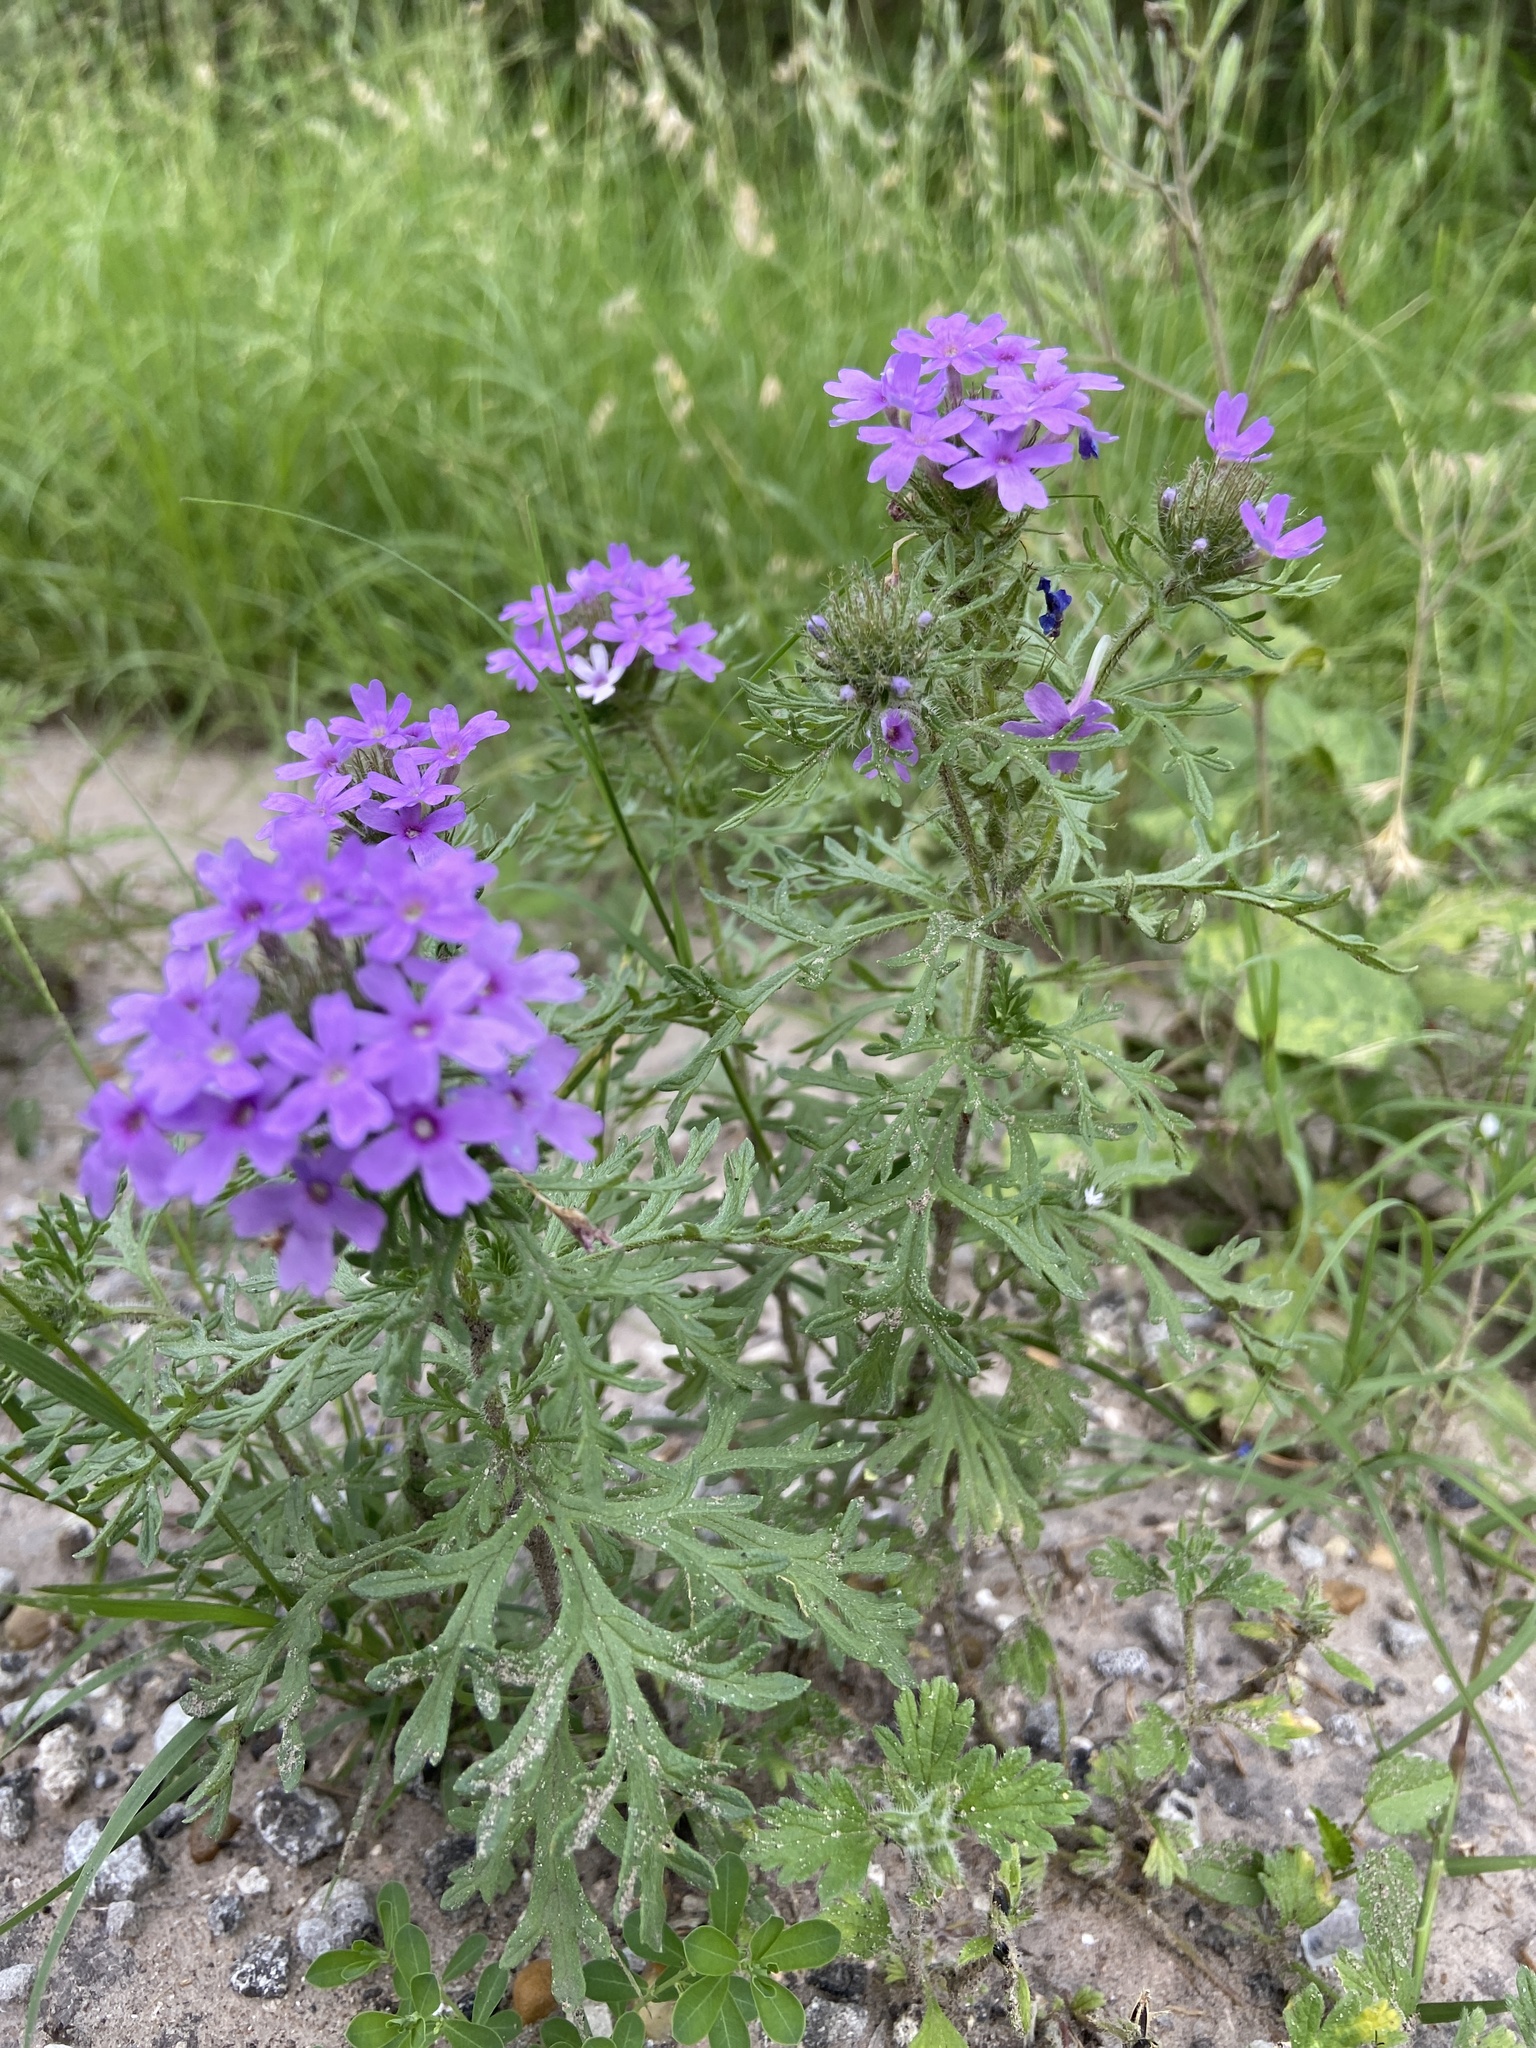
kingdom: Plantae
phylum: Tracheophyta
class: Magnoliopsida
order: Lamiales
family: Verbenaceae
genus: Verbena
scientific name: Verbena bipinnatifida
